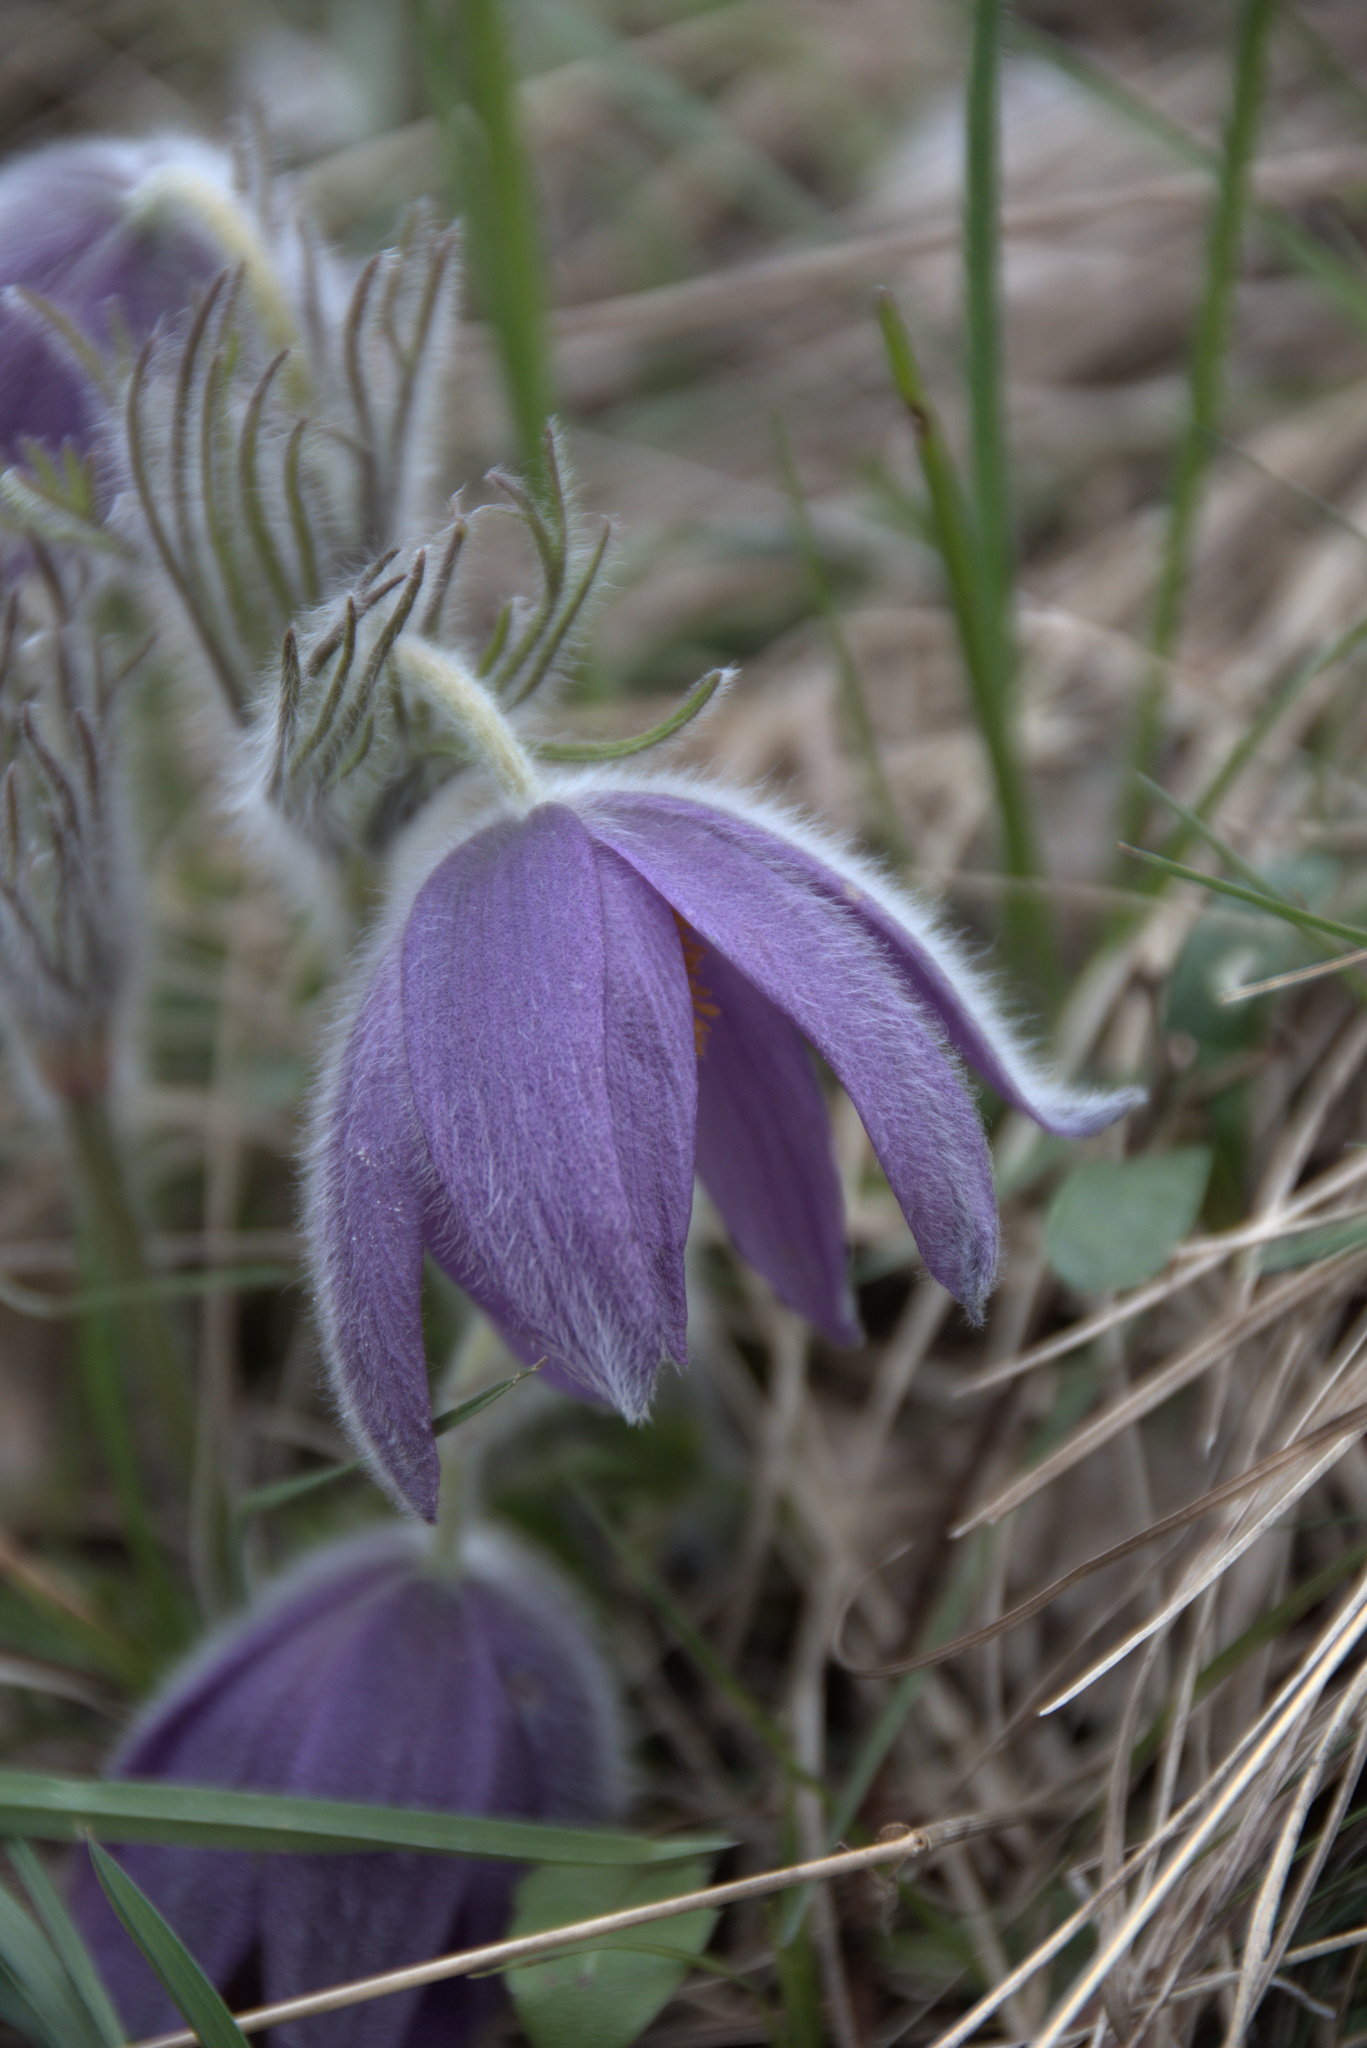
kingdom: Plantae
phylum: Tracheophyta
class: Magnoliopsida
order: Ranunculales
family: Ranunculaceae
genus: Pulsatilla
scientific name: Pulsatilla vulgaris
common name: Pasqueflower
